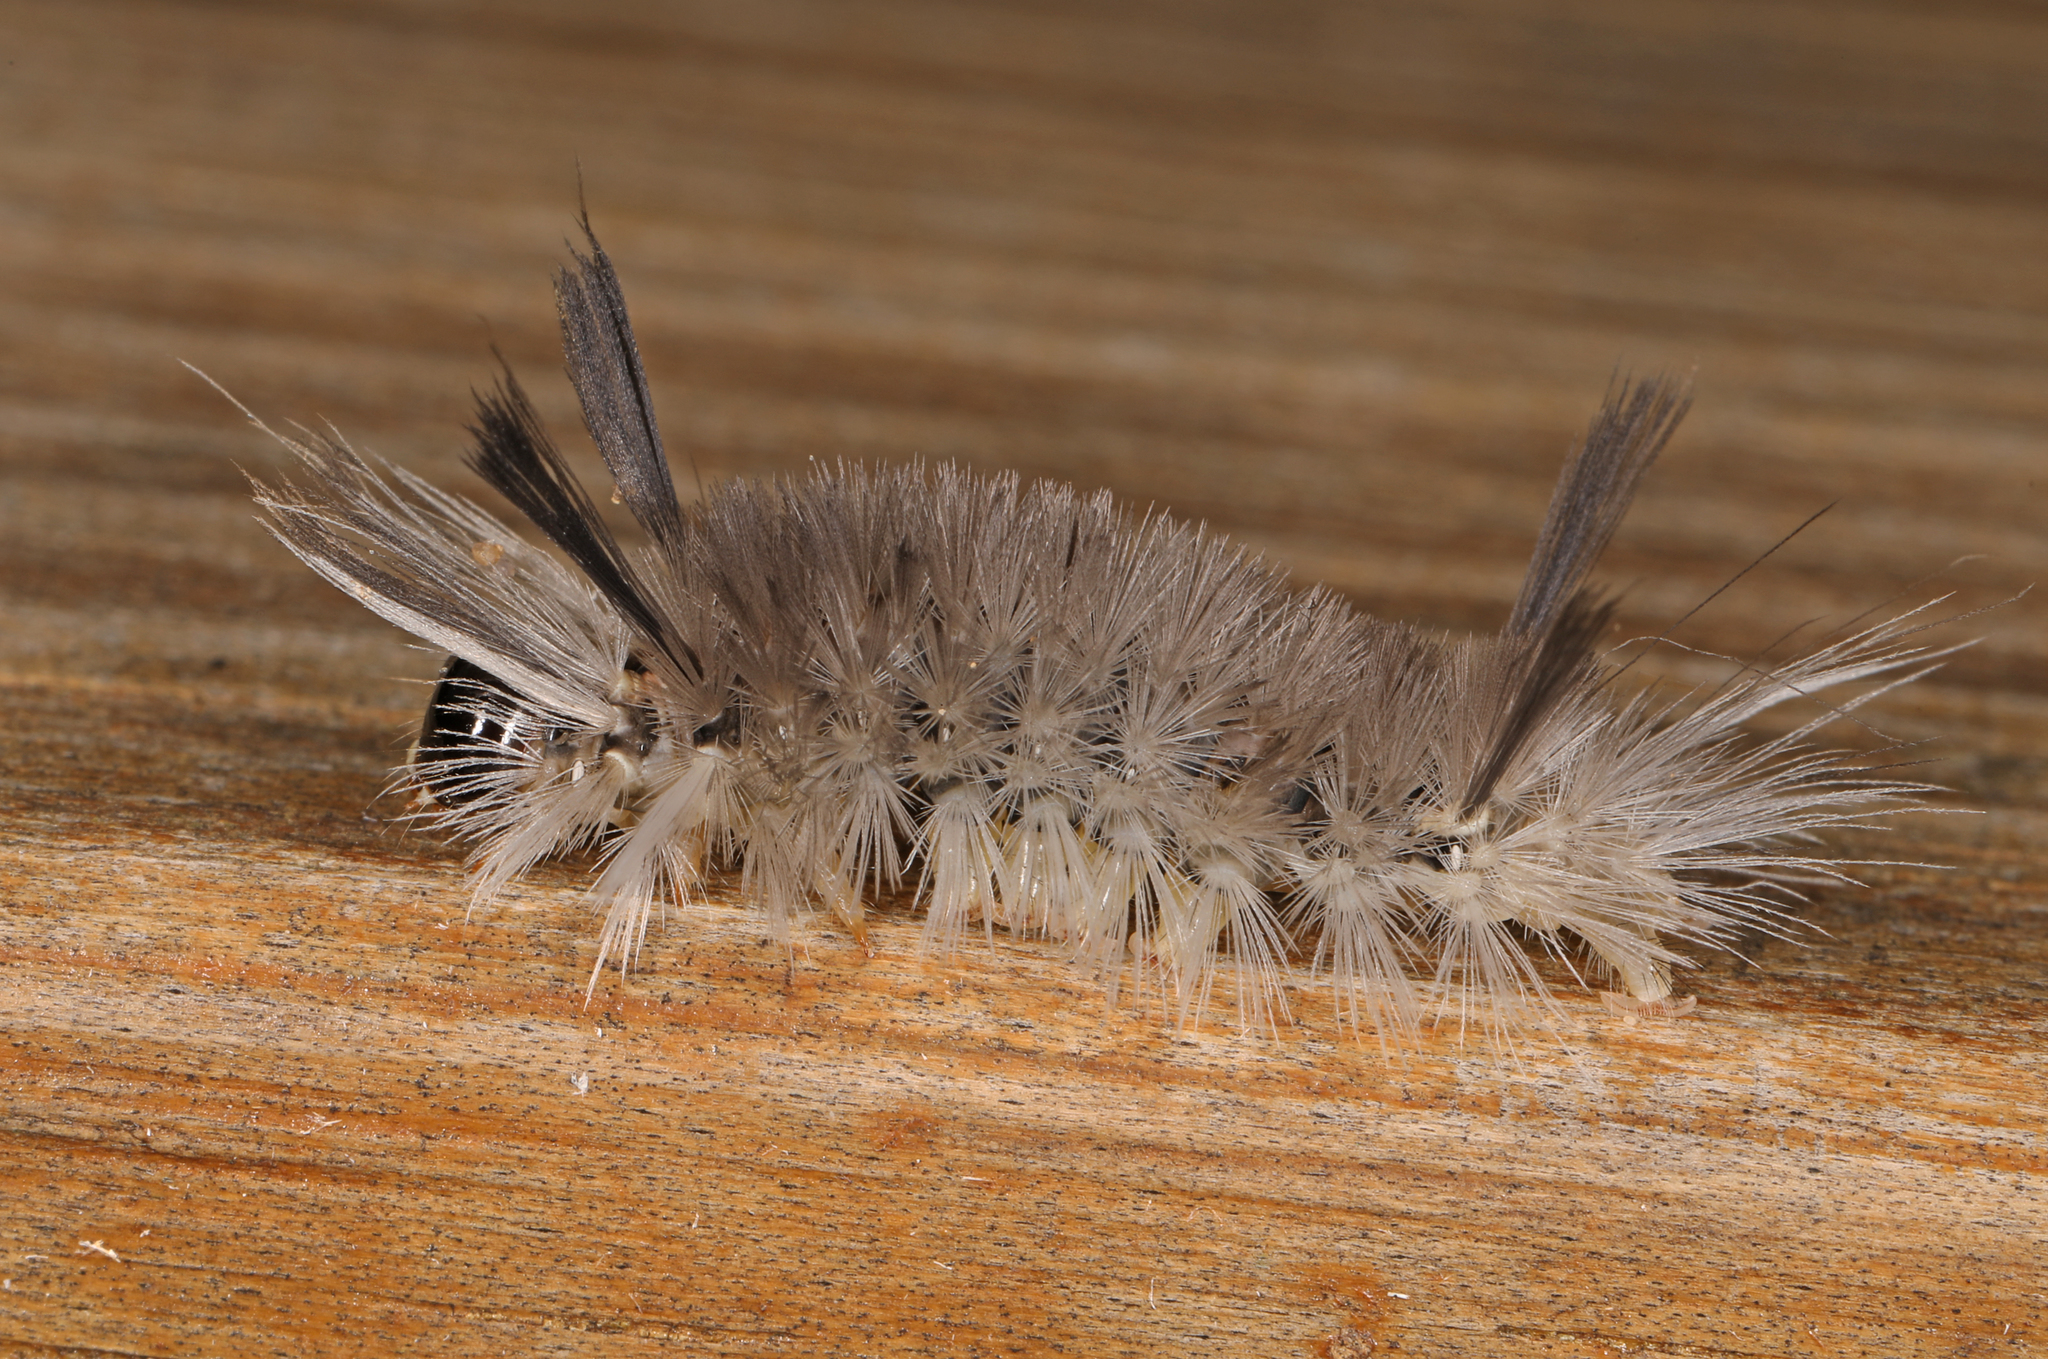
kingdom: Animalia
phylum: Arthropoda
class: Insecta
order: Lepidoptera
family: Erebidae
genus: Halysidota
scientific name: Halysidota tessellaris
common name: Banded tussock moth
